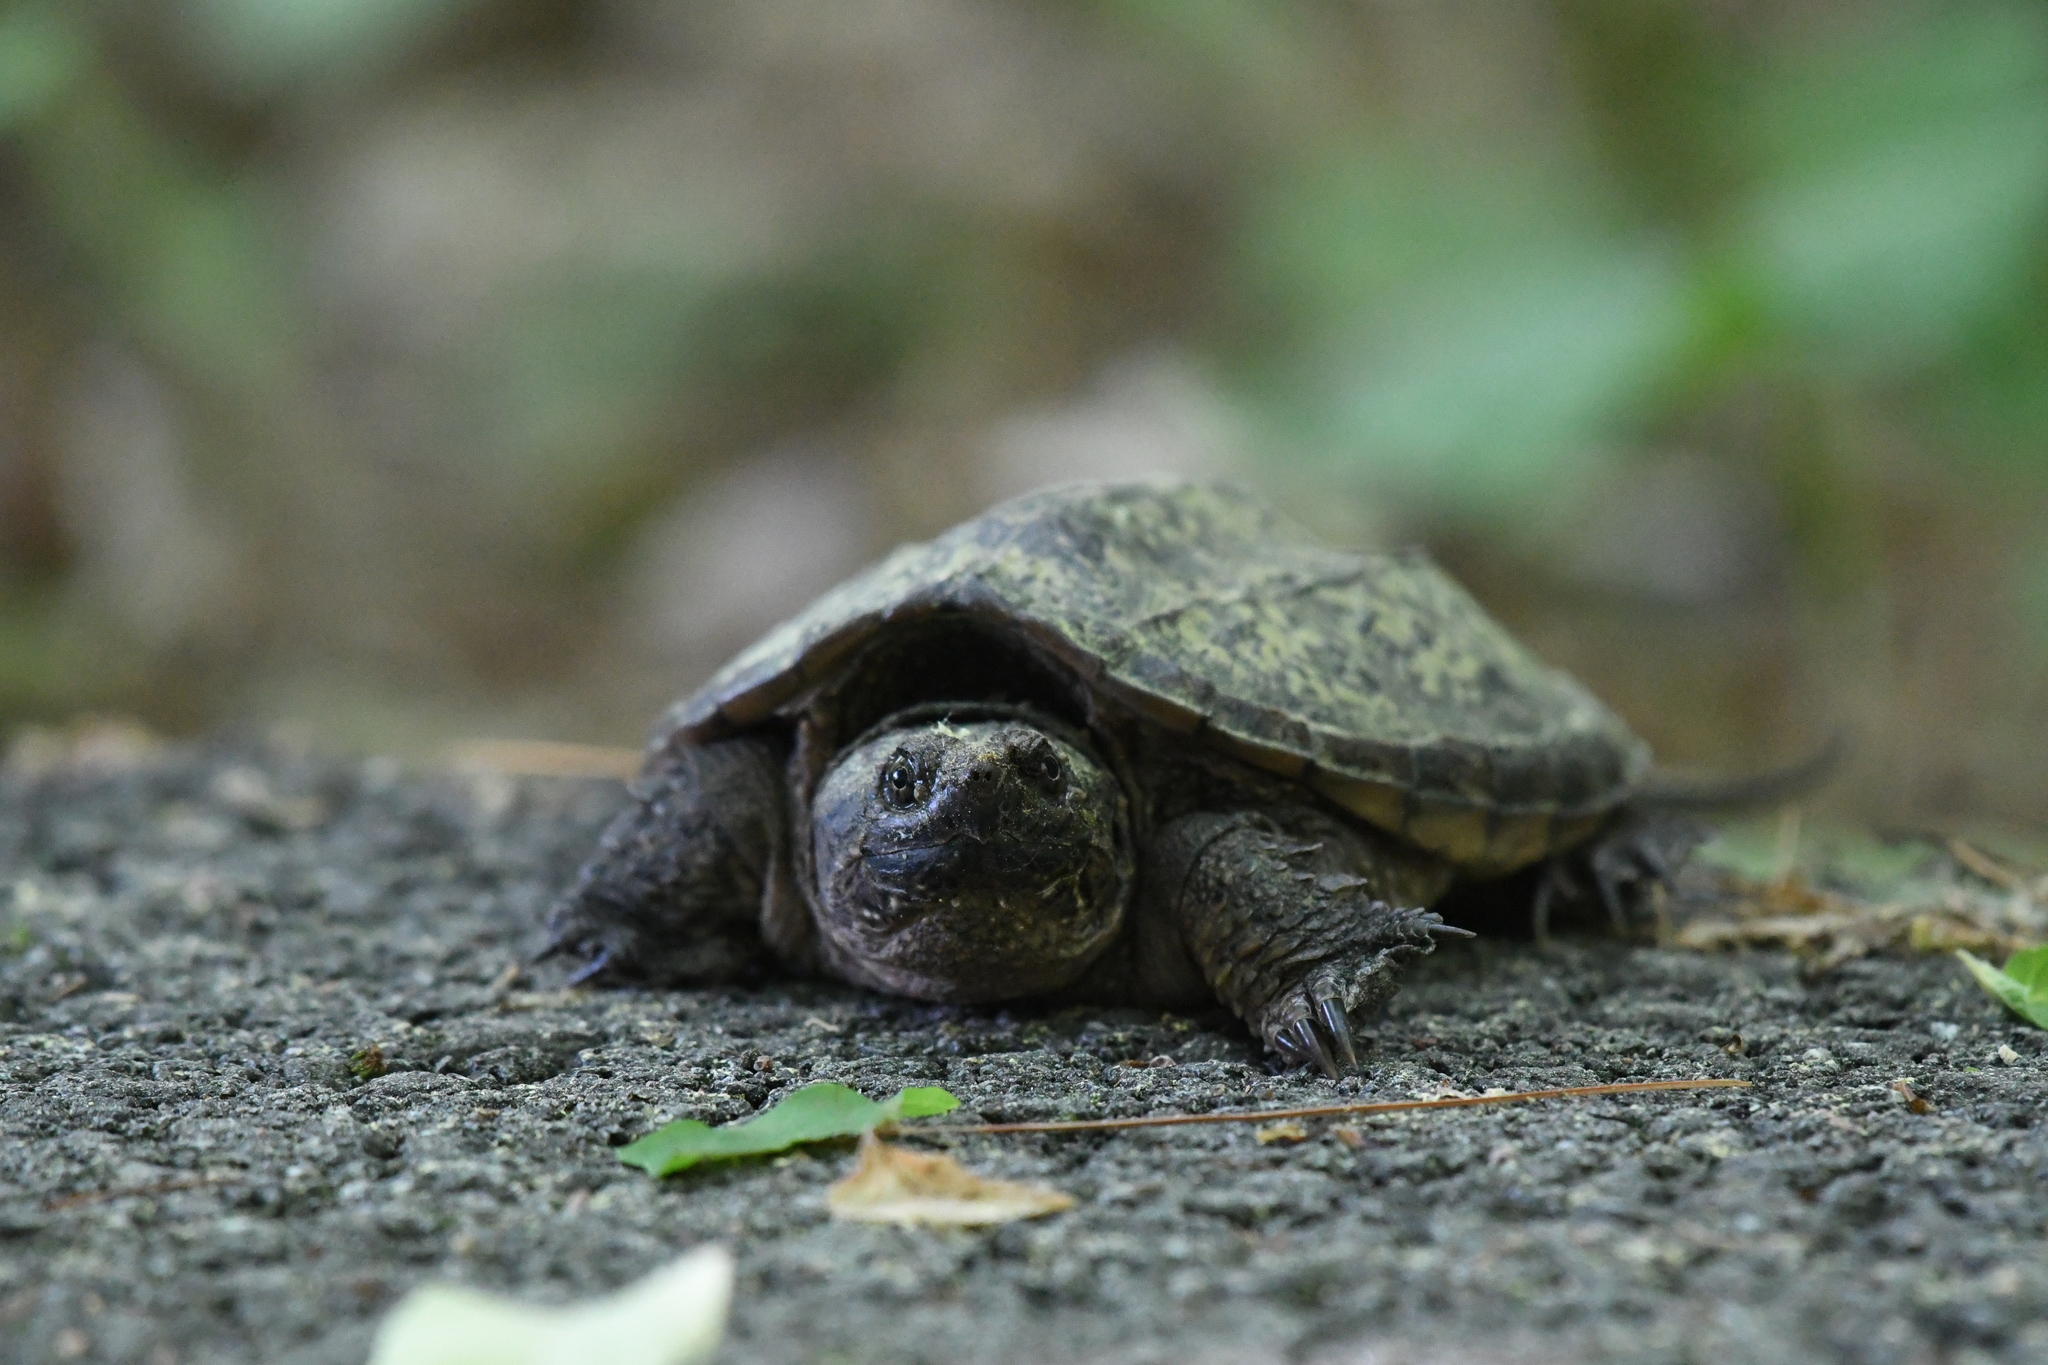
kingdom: Animalia
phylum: Chordata
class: Testudines
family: Chelydridae
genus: Chelydra
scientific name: Chelydra serpentina
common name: Common snapping turtle
